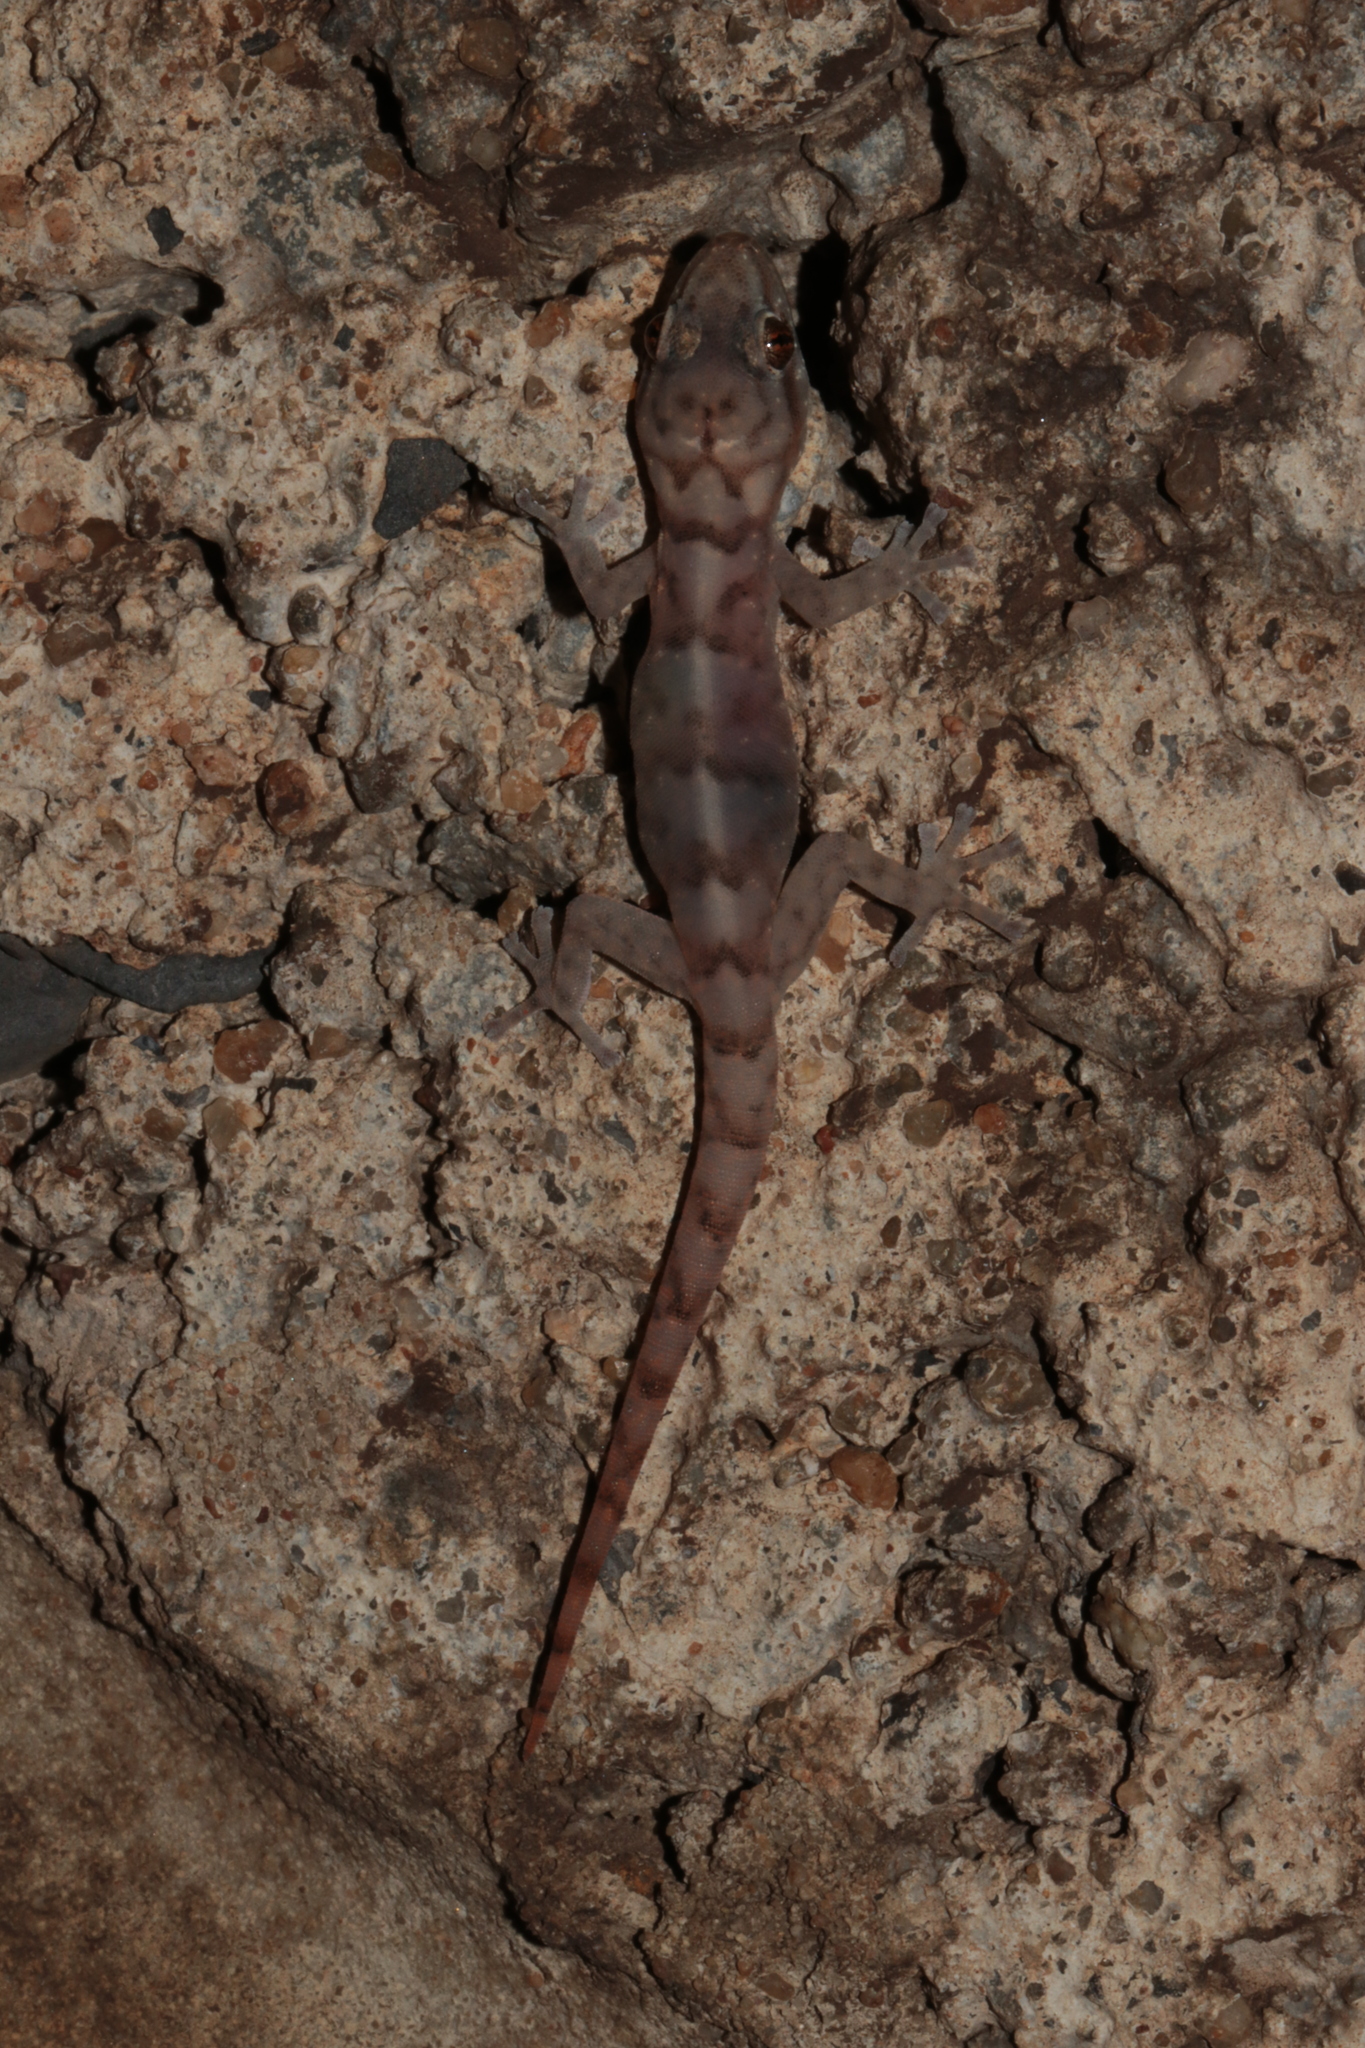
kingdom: Animalia
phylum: Chordata
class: Squamata
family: Gekkonidae
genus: Afroedura
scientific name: Afroedura pienaari
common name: Pienaar’s rock gecko
